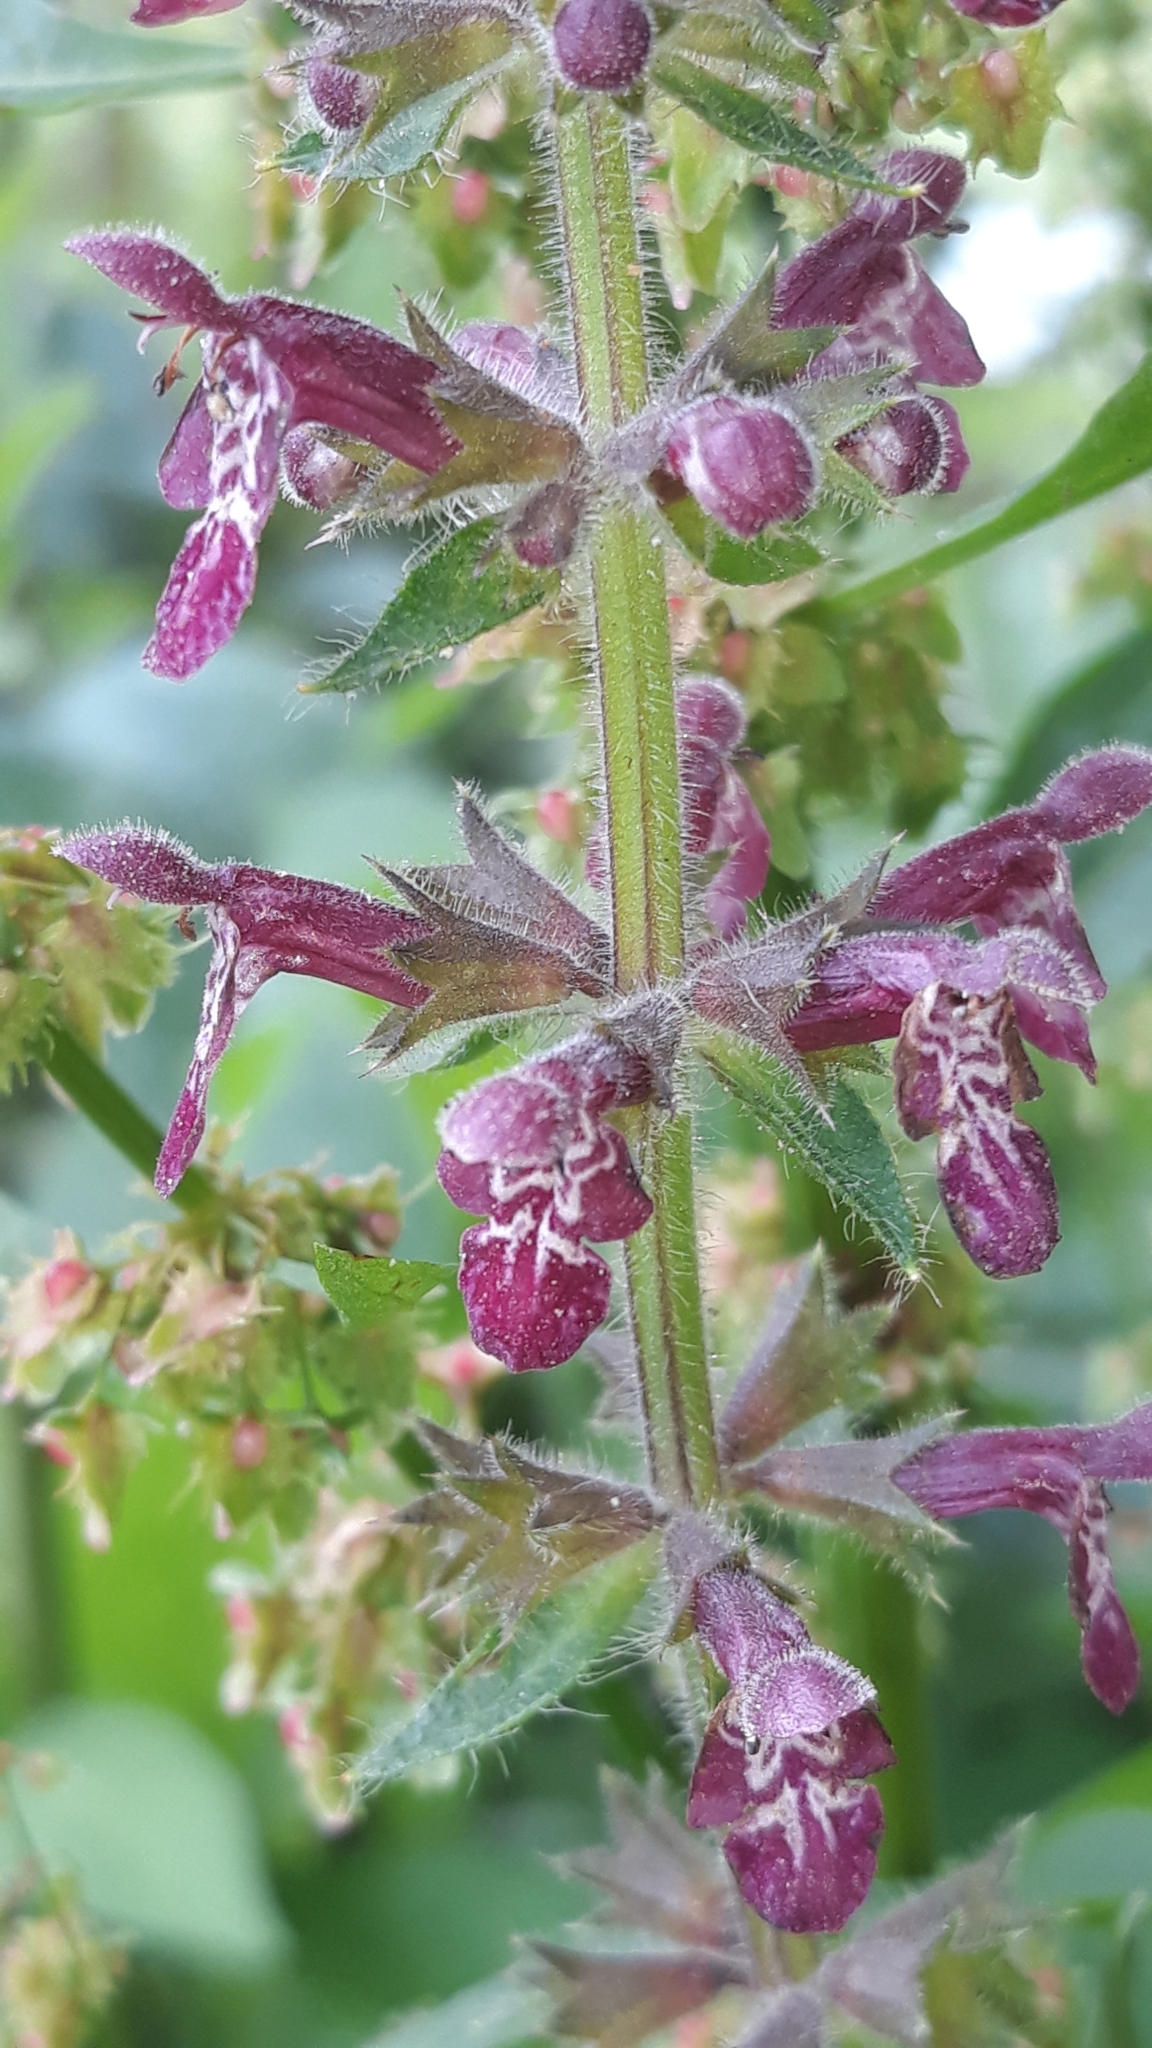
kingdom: Plantae
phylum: Tracheophyta
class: Magnoliopsida
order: Lamiales
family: Lamiaceae
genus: Stachys
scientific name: Stachys sylvatica
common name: Hedge woundwort
